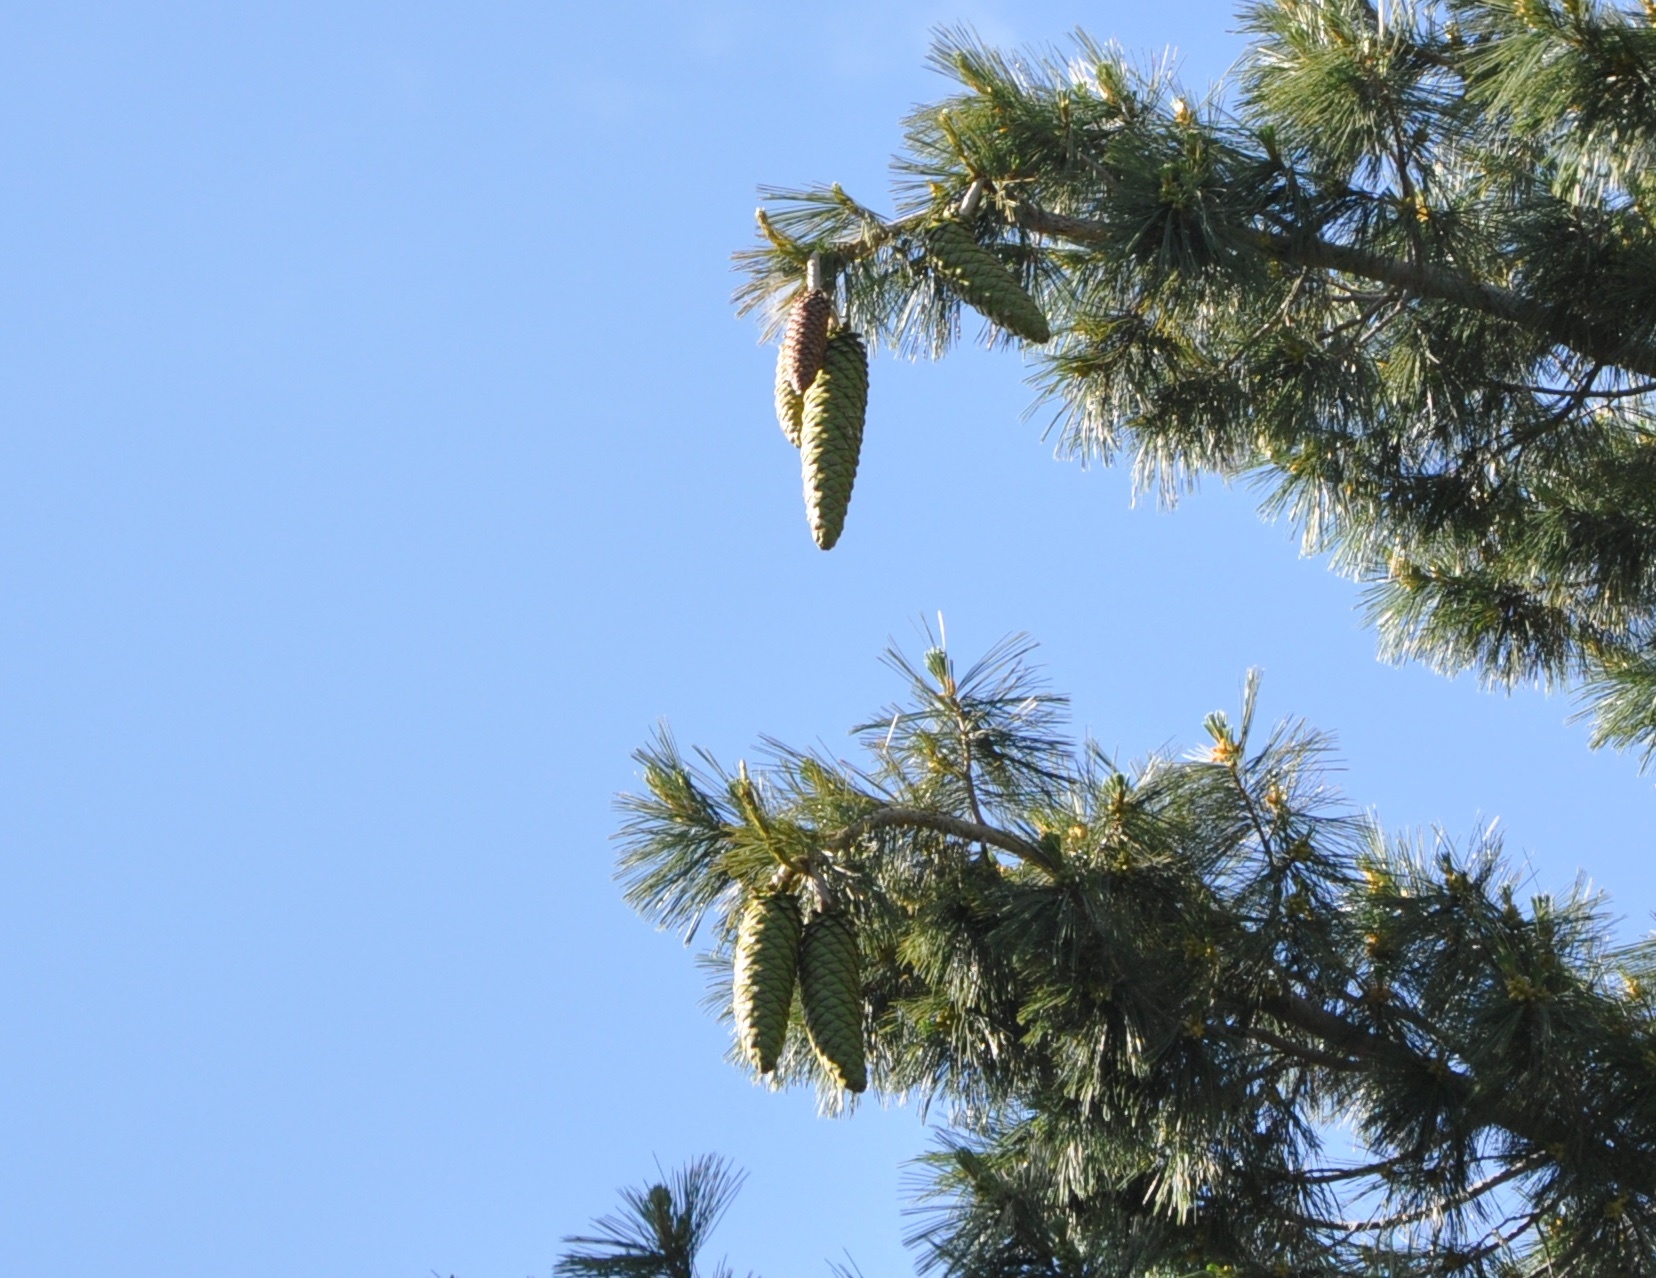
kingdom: Plantae
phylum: Tracheophyta
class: Pinopsida
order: Pinales
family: Pinaceae
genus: Pinus
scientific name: Pinus lambertiana
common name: Sugar pine
